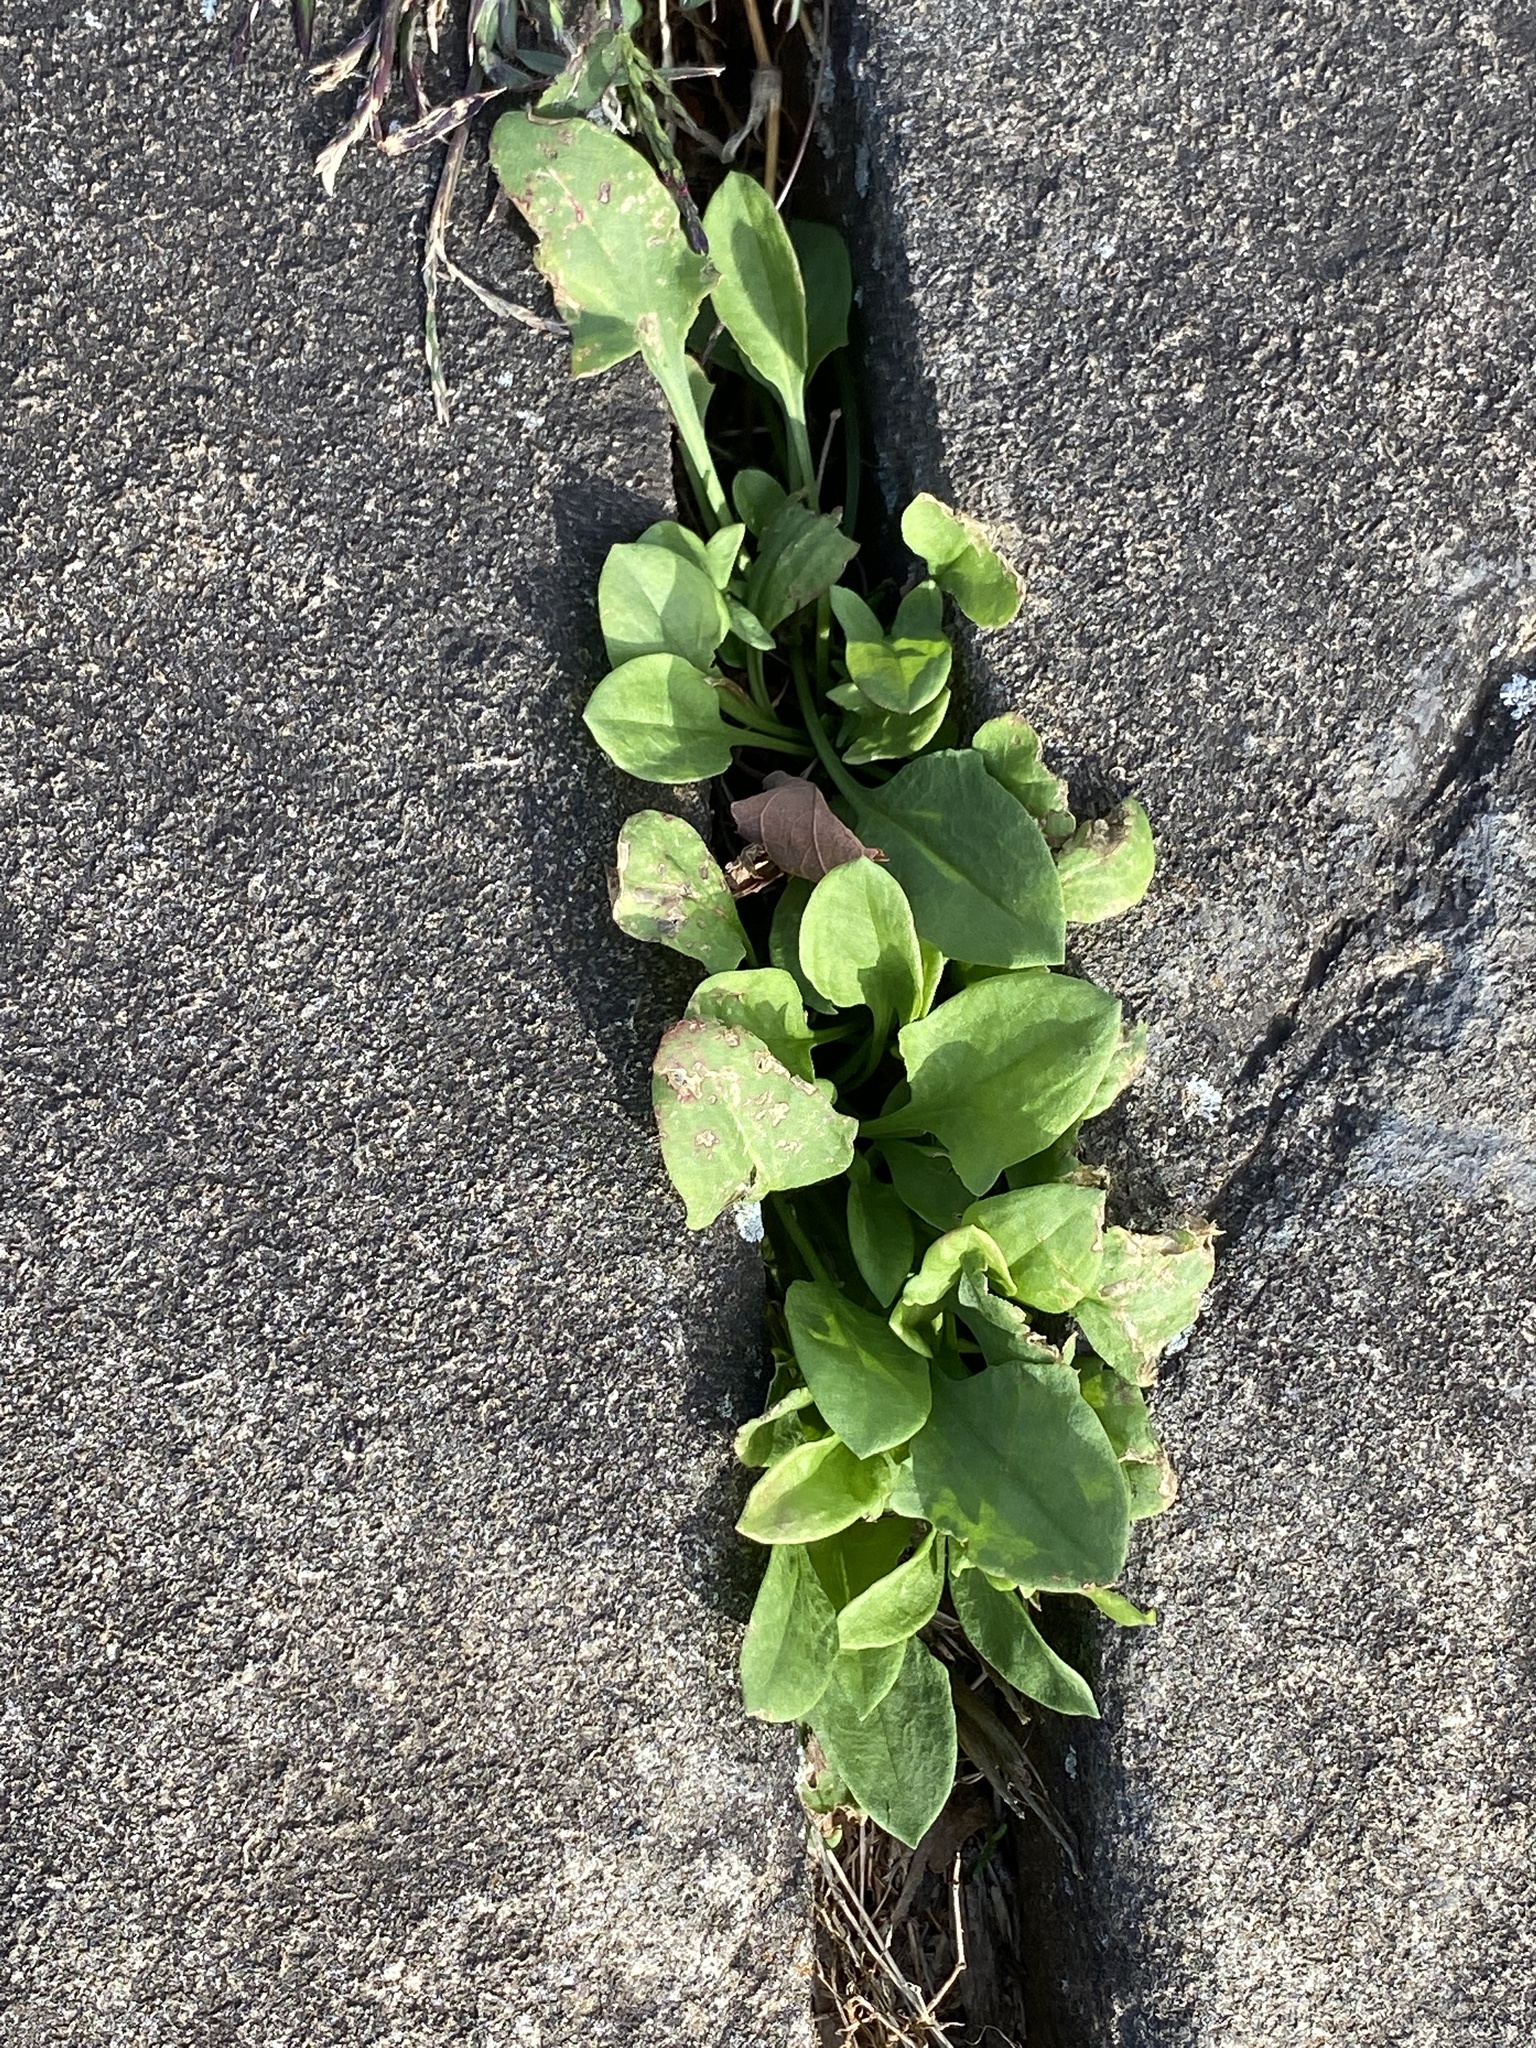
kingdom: Plantae
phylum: Tracheophyta
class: Magnoliopsida
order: Caryophyllales
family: Polygonaceae
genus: Rumex
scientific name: Rumex acetosella
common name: Common sheep sorrel
